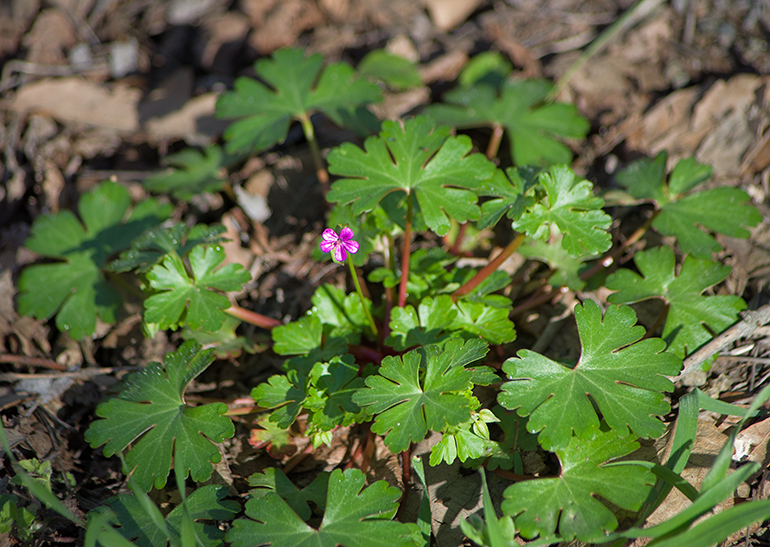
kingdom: Plantae
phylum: Tracheophyta
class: Magnoliopsida
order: Geraniales
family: Geraniaceae
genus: Geranium
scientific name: Geranium lucidum
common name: Shining crane's-bill
